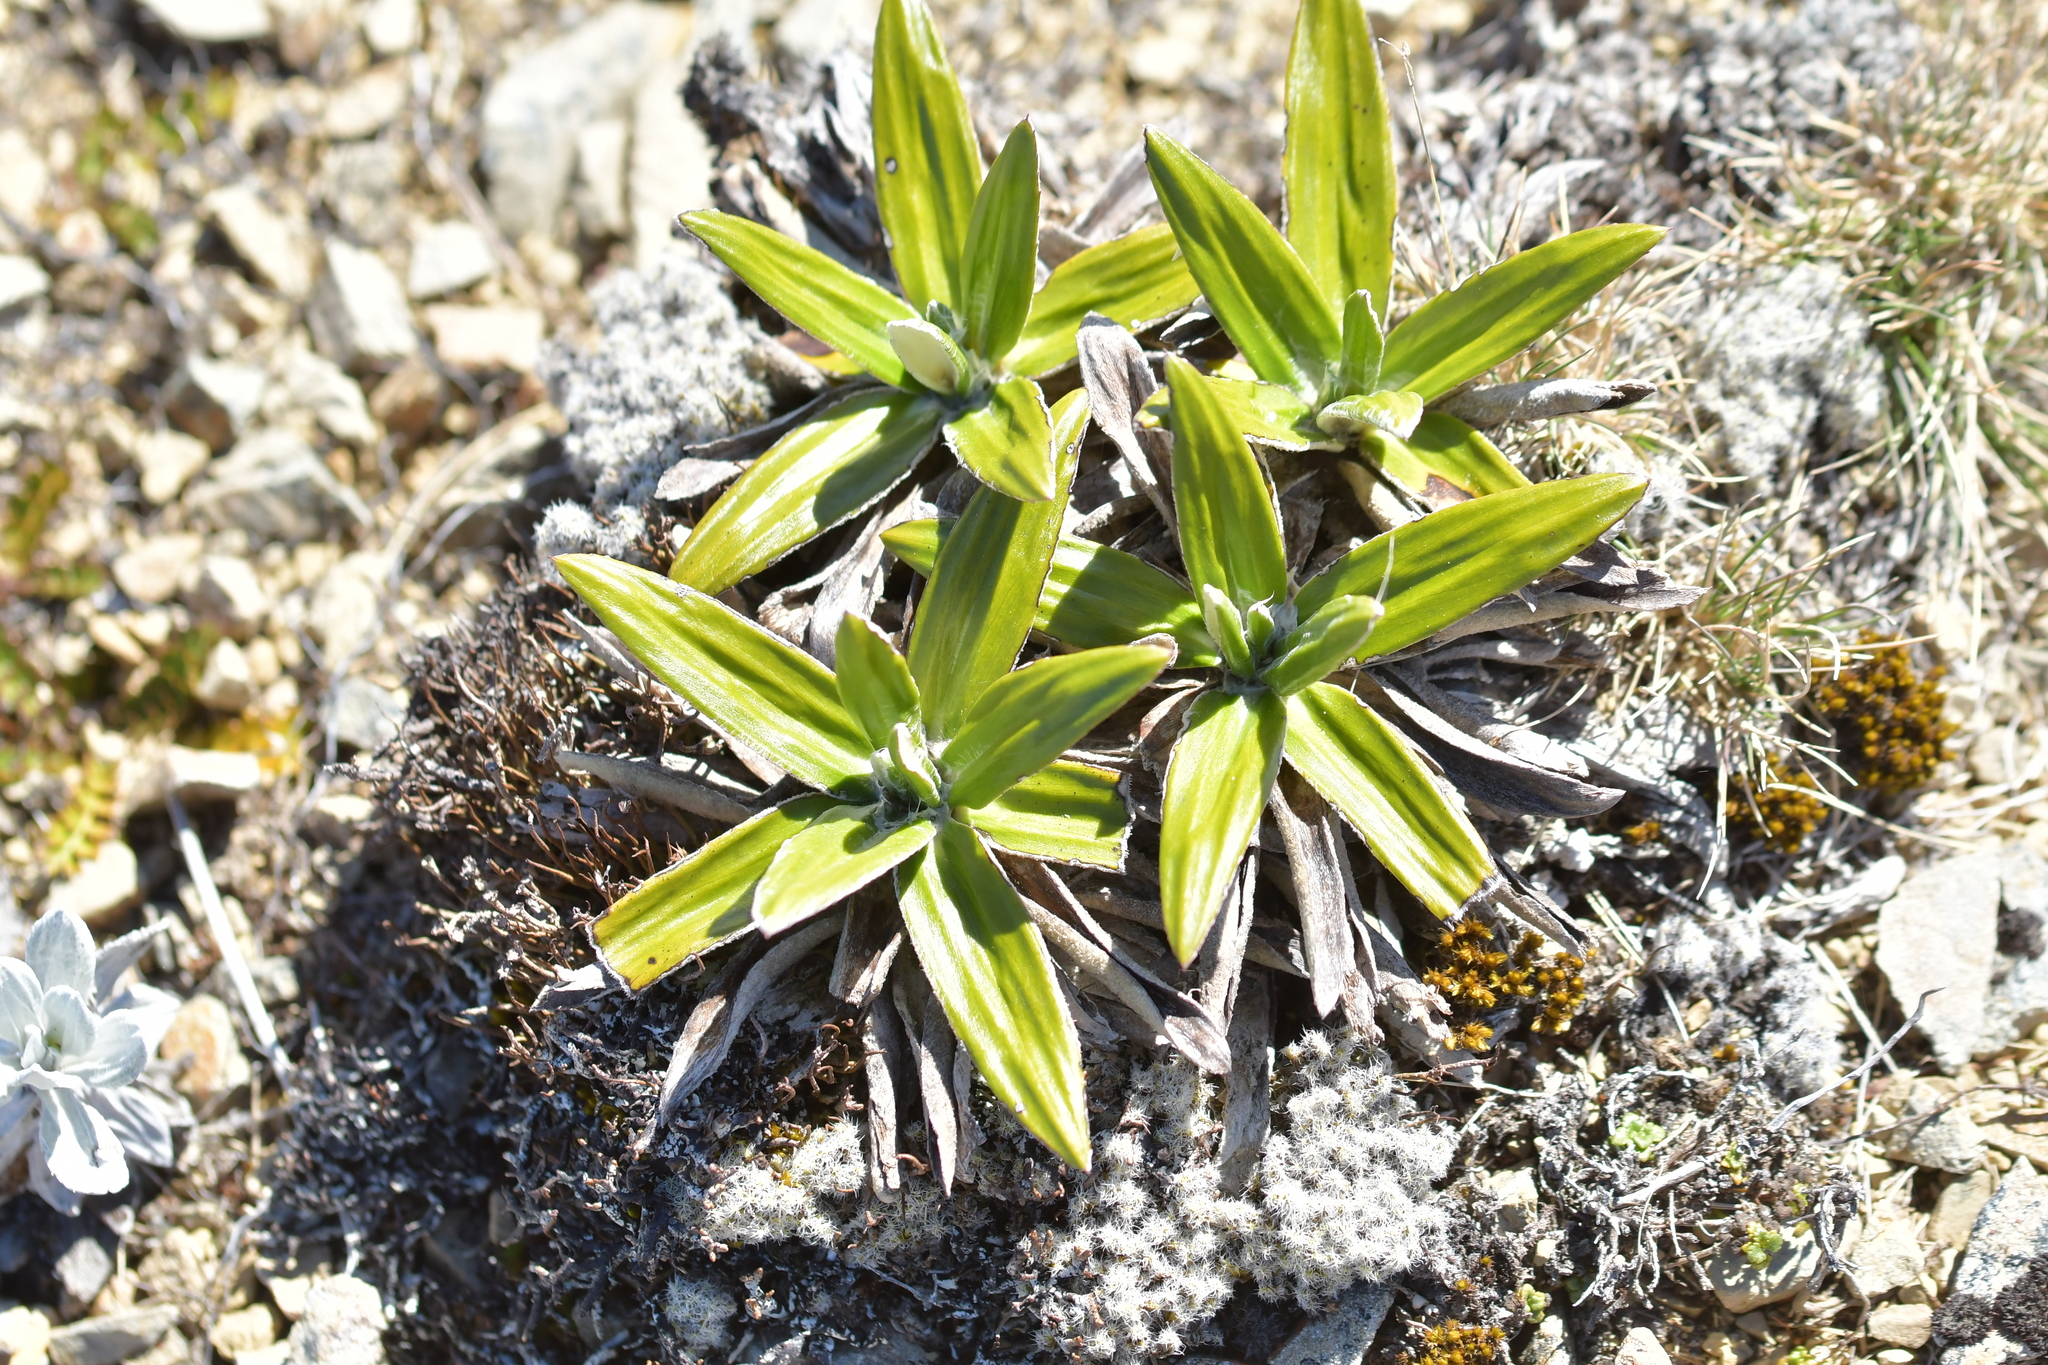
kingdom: Plantae
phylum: Tracheophyta
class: Magnoliopsida
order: Asterales
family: Asteraceae
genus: Celmisia
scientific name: Celmisia spectabilis
